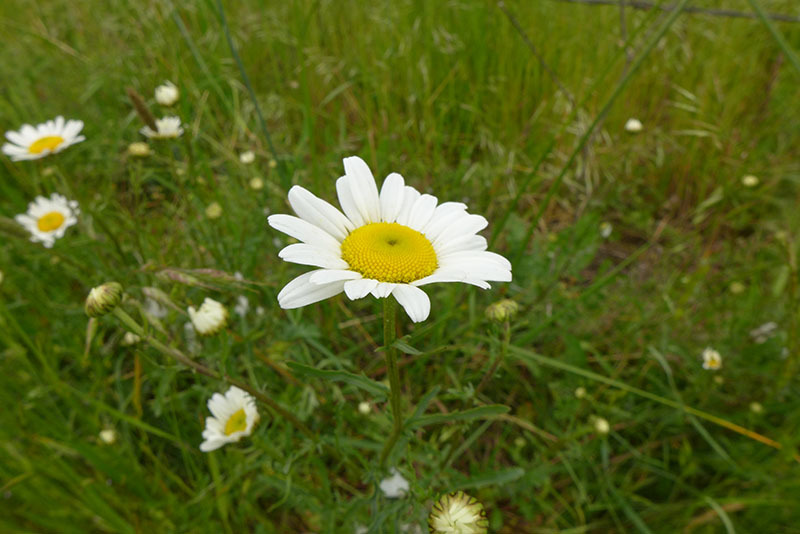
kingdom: Plantae
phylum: Tracheophyta
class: Magnoliopsida
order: Asterales
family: Asteraceae
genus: Leucanthemum
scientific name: Leucanthemum vulgare
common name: Oxeye daisy
